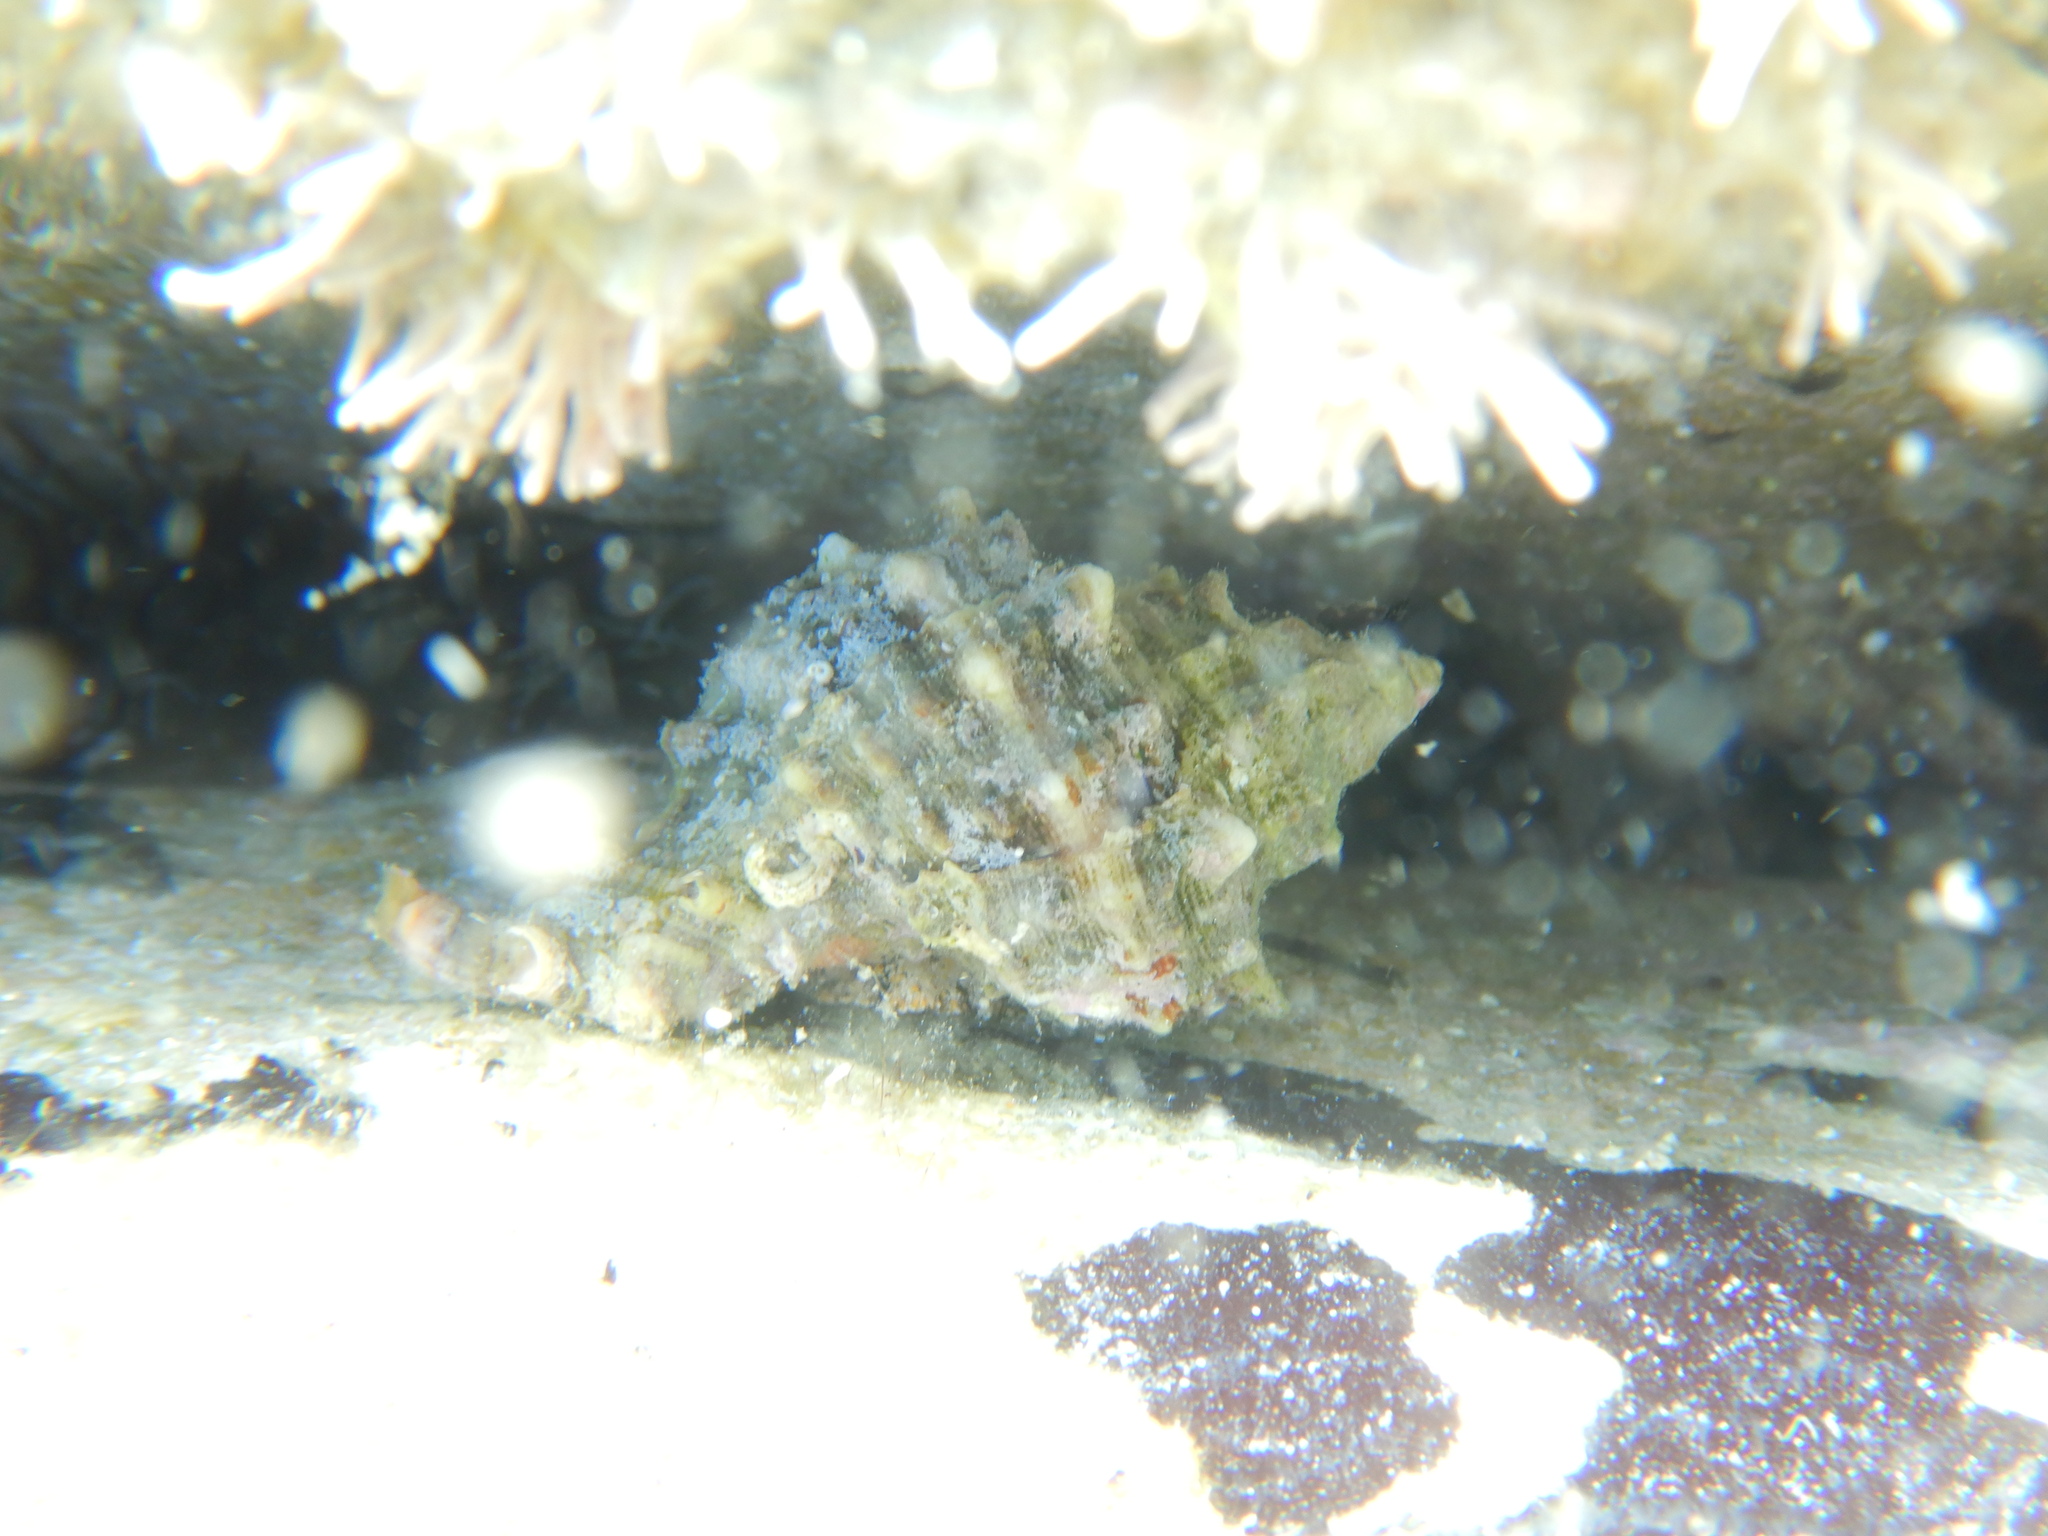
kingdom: Animalia
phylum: Mollusca
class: Gastropoda
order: Neogastropoda
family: Muricidae
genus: Hexaplex
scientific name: Hexaplex trunculus
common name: Banded dye-murex
